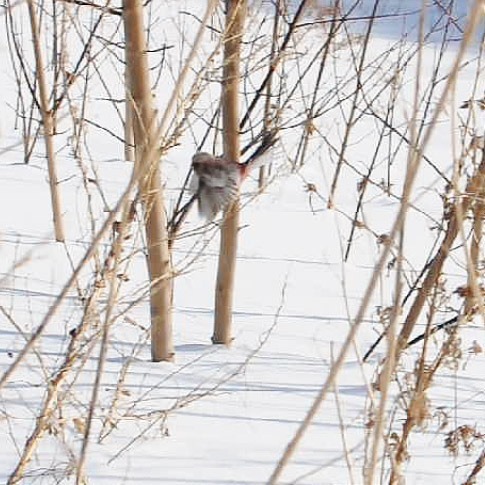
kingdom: Animalia
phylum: Chordata
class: Aves
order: Passeriformes
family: Fringillidae
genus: Carpodacus
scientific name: Carpodacus sibiricus
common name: Long-tailed rosefinch
